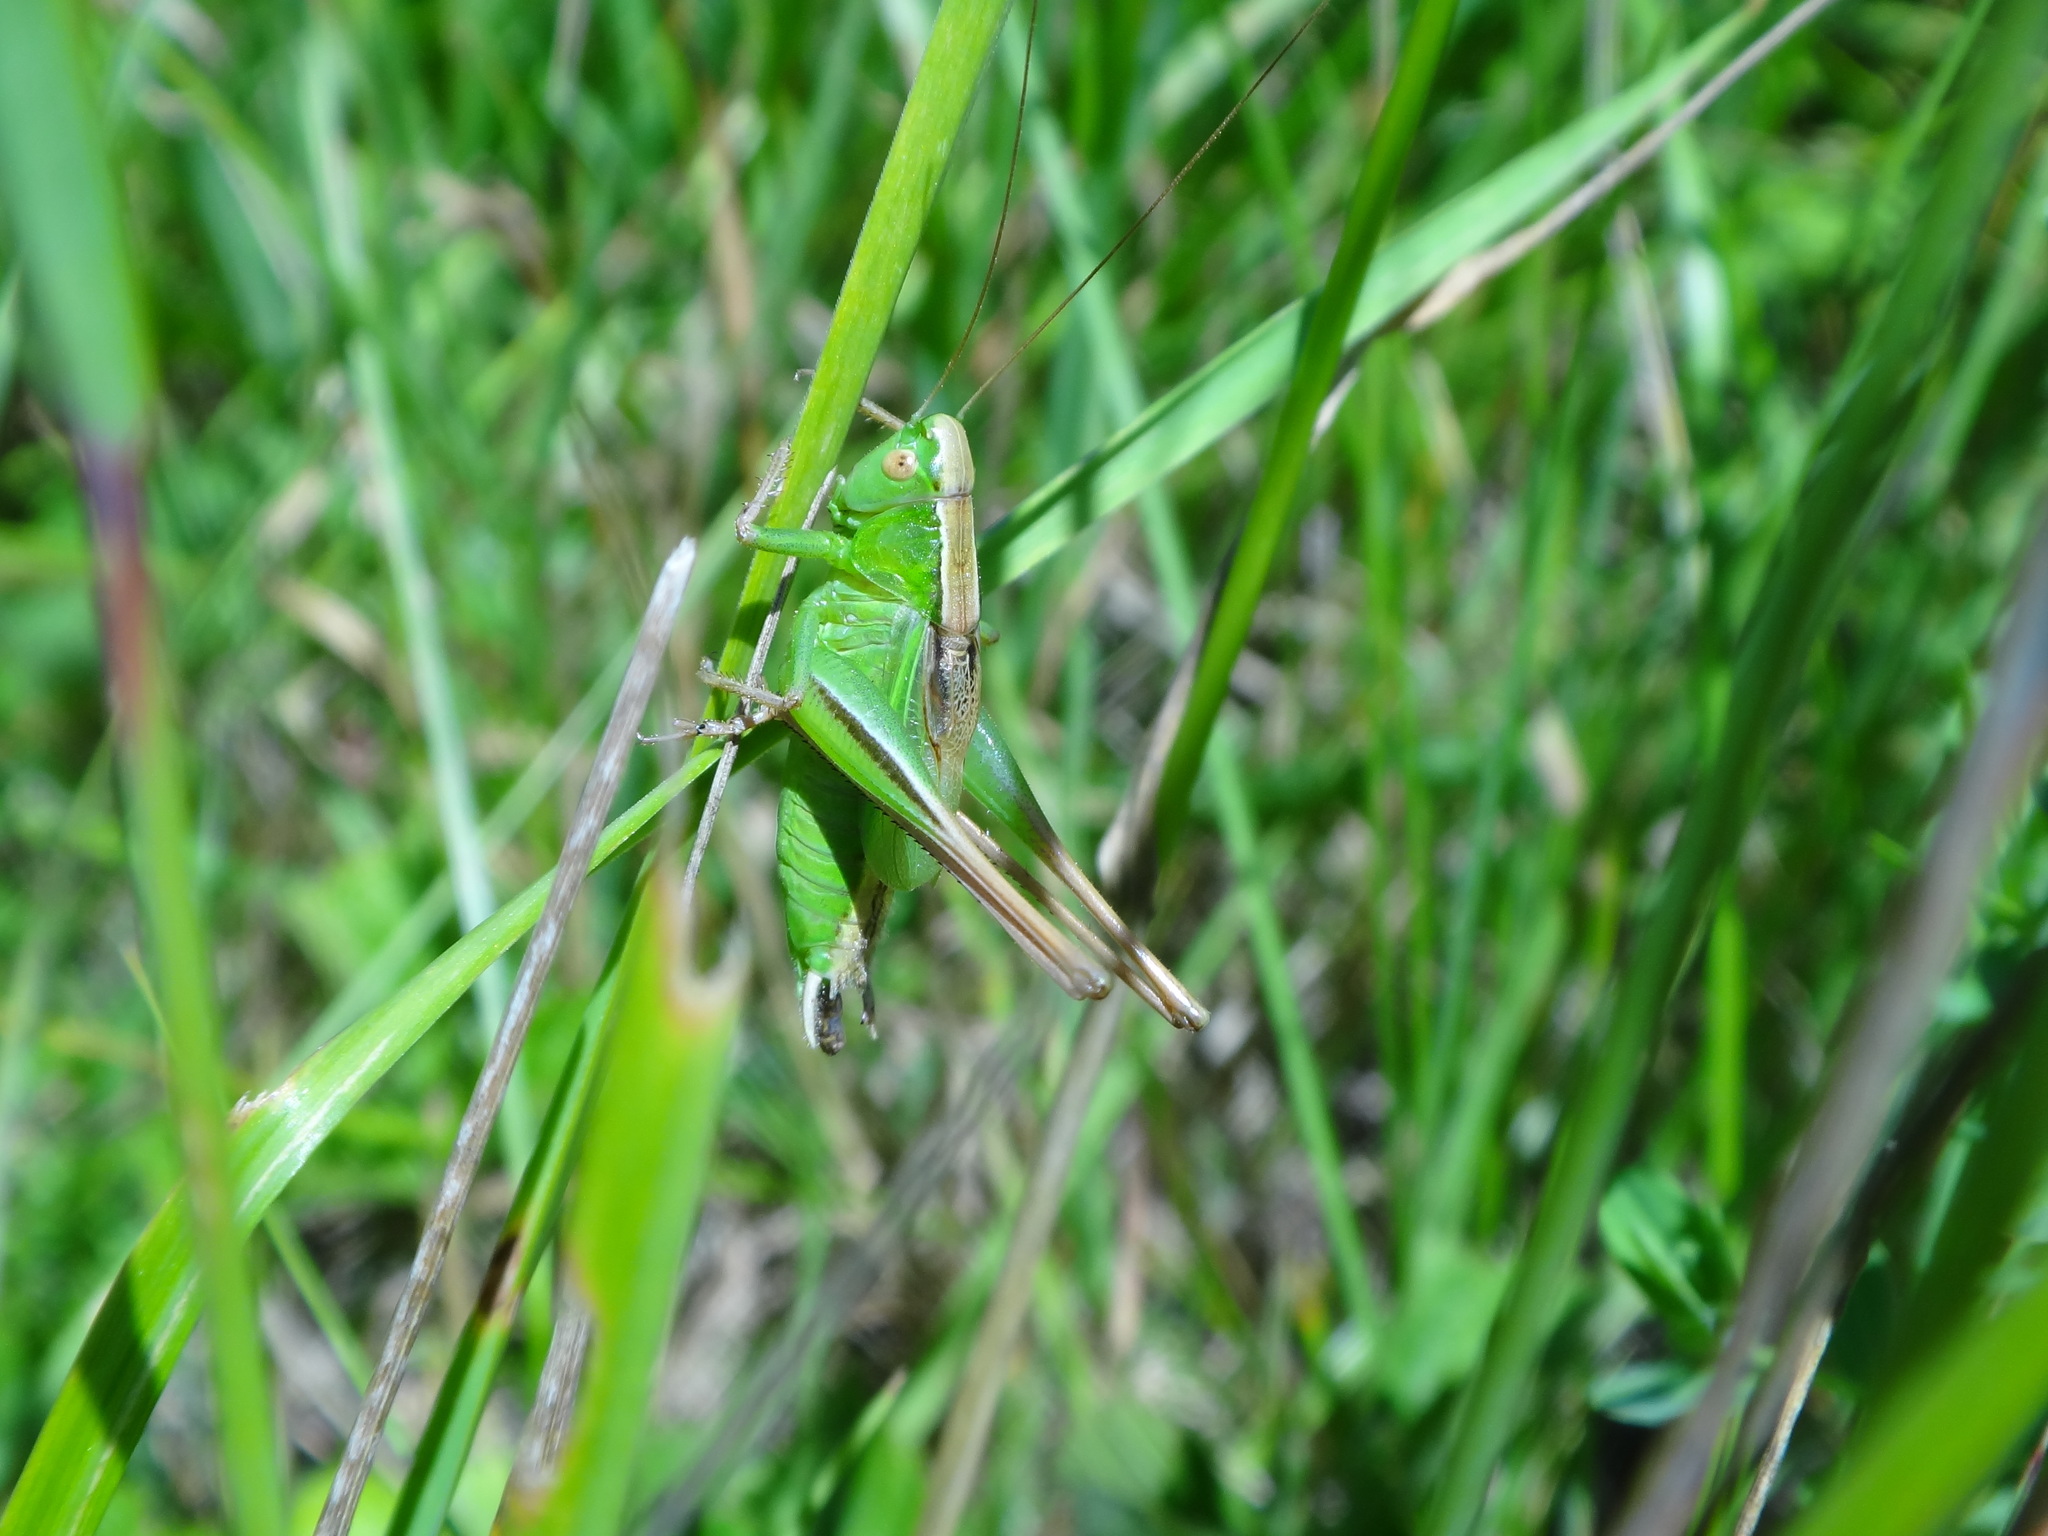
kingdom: Animalia
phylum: Arthropoda
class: Insecta
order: Orthoptera
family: Tettigoniidae
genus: Bicolorana
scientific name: Bicolorana bicolor
